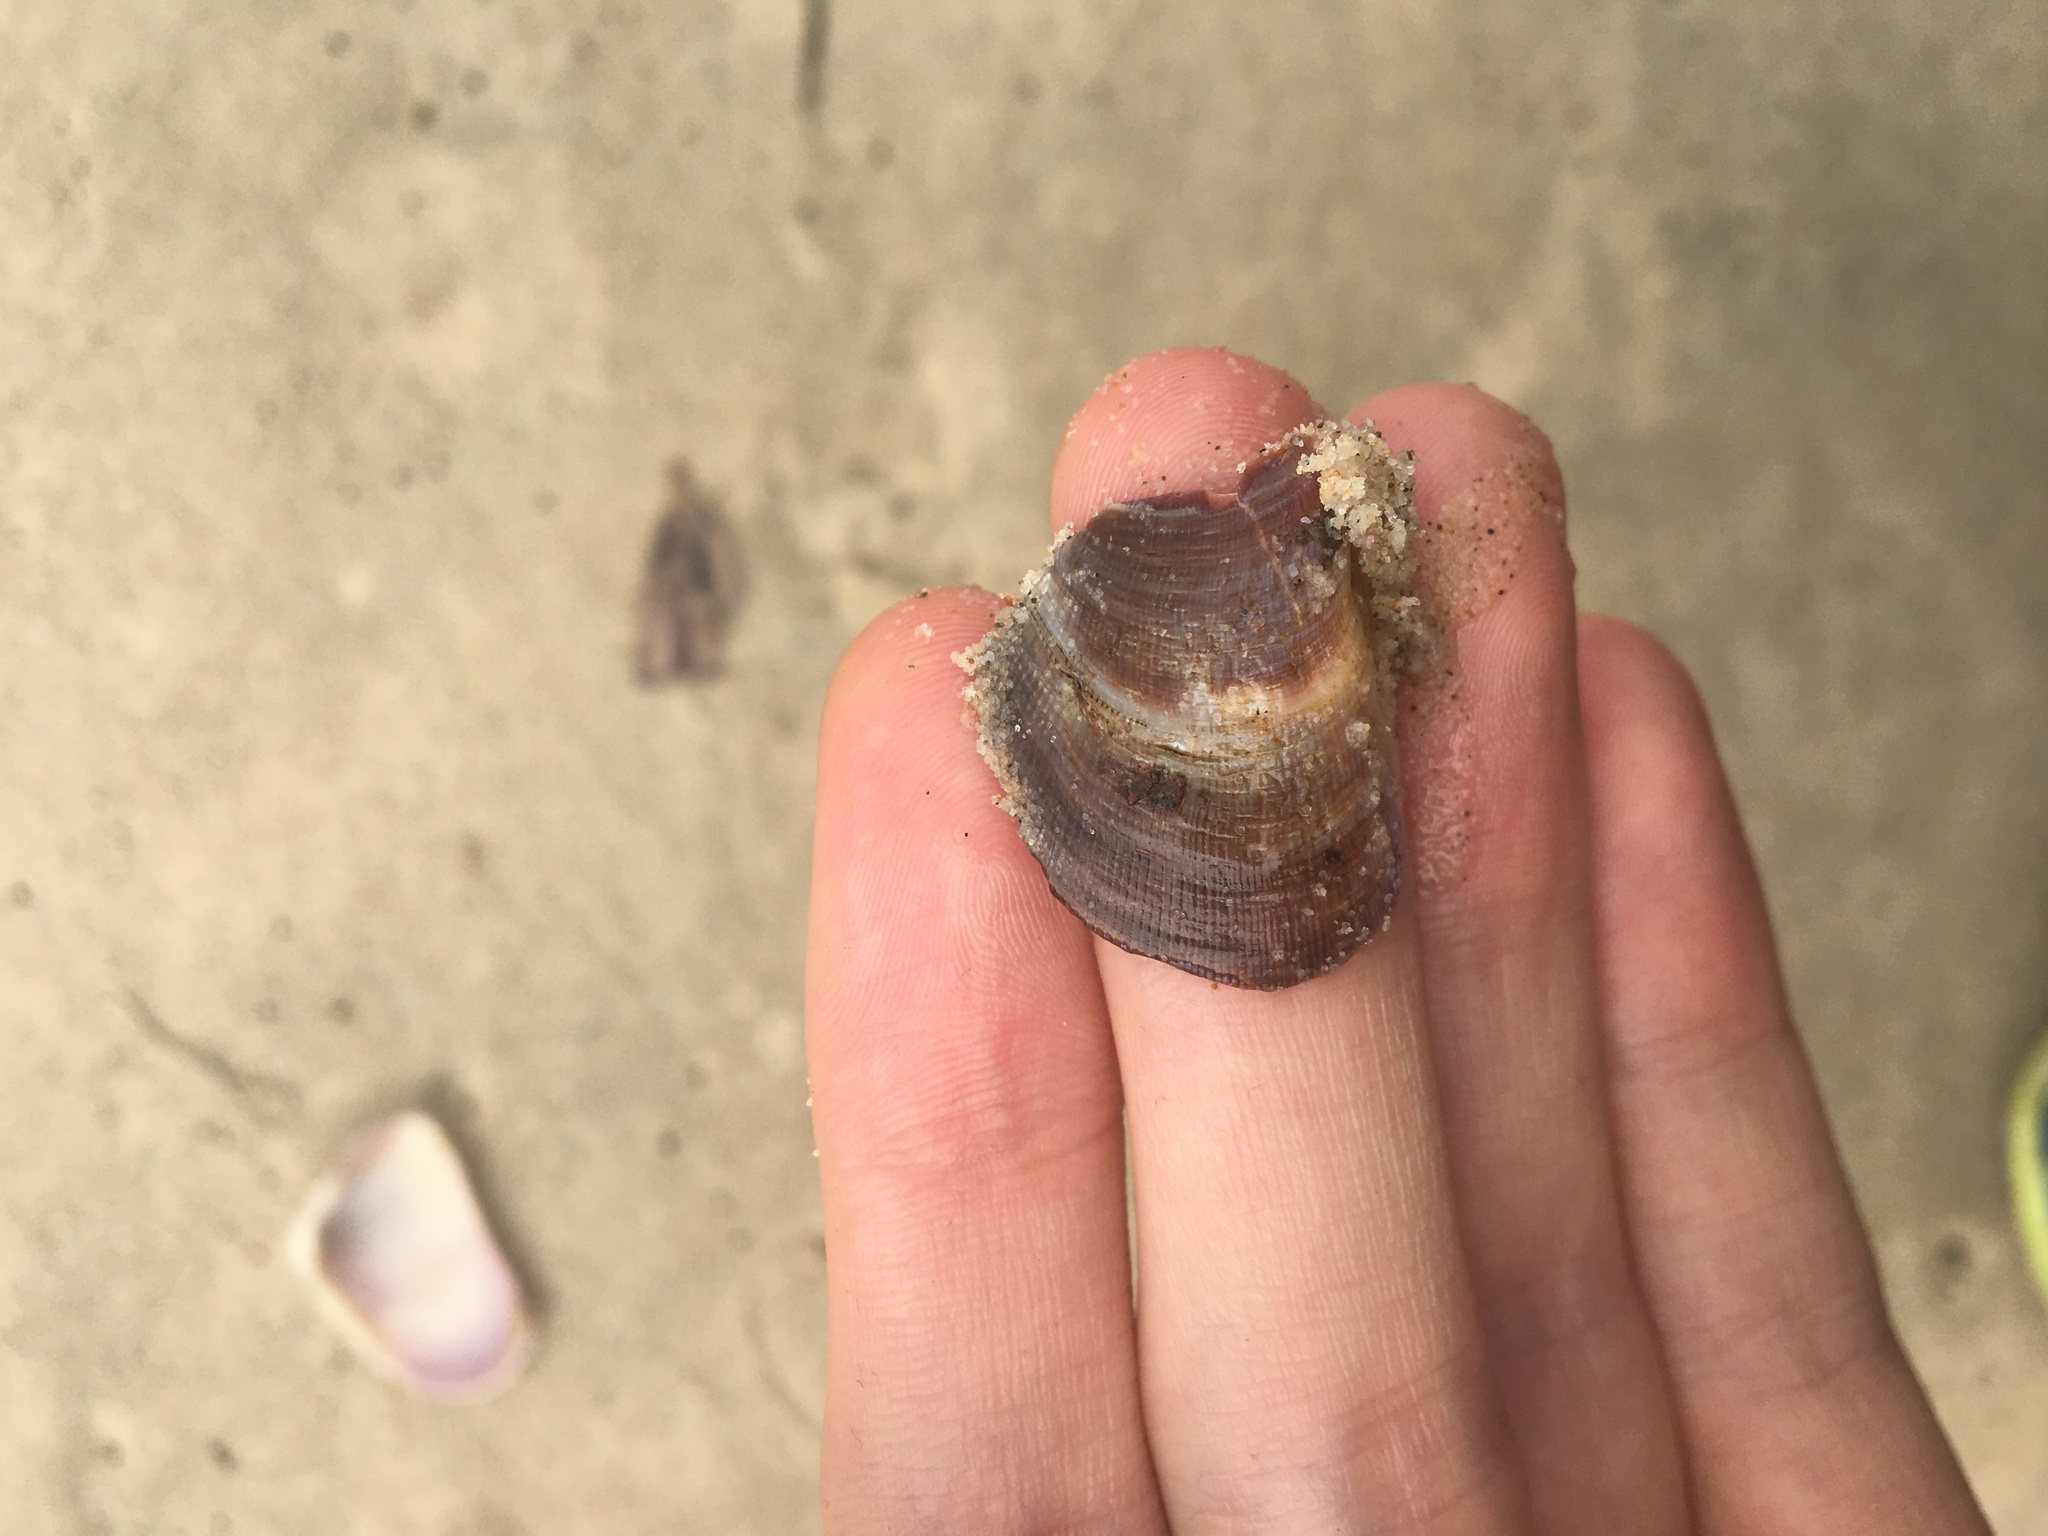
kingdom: Animalia
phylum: Mollusca
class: Bivalvia
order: Mytilida
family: Mytilidae
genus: Trichomya
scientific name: Trichomya hirsuta
